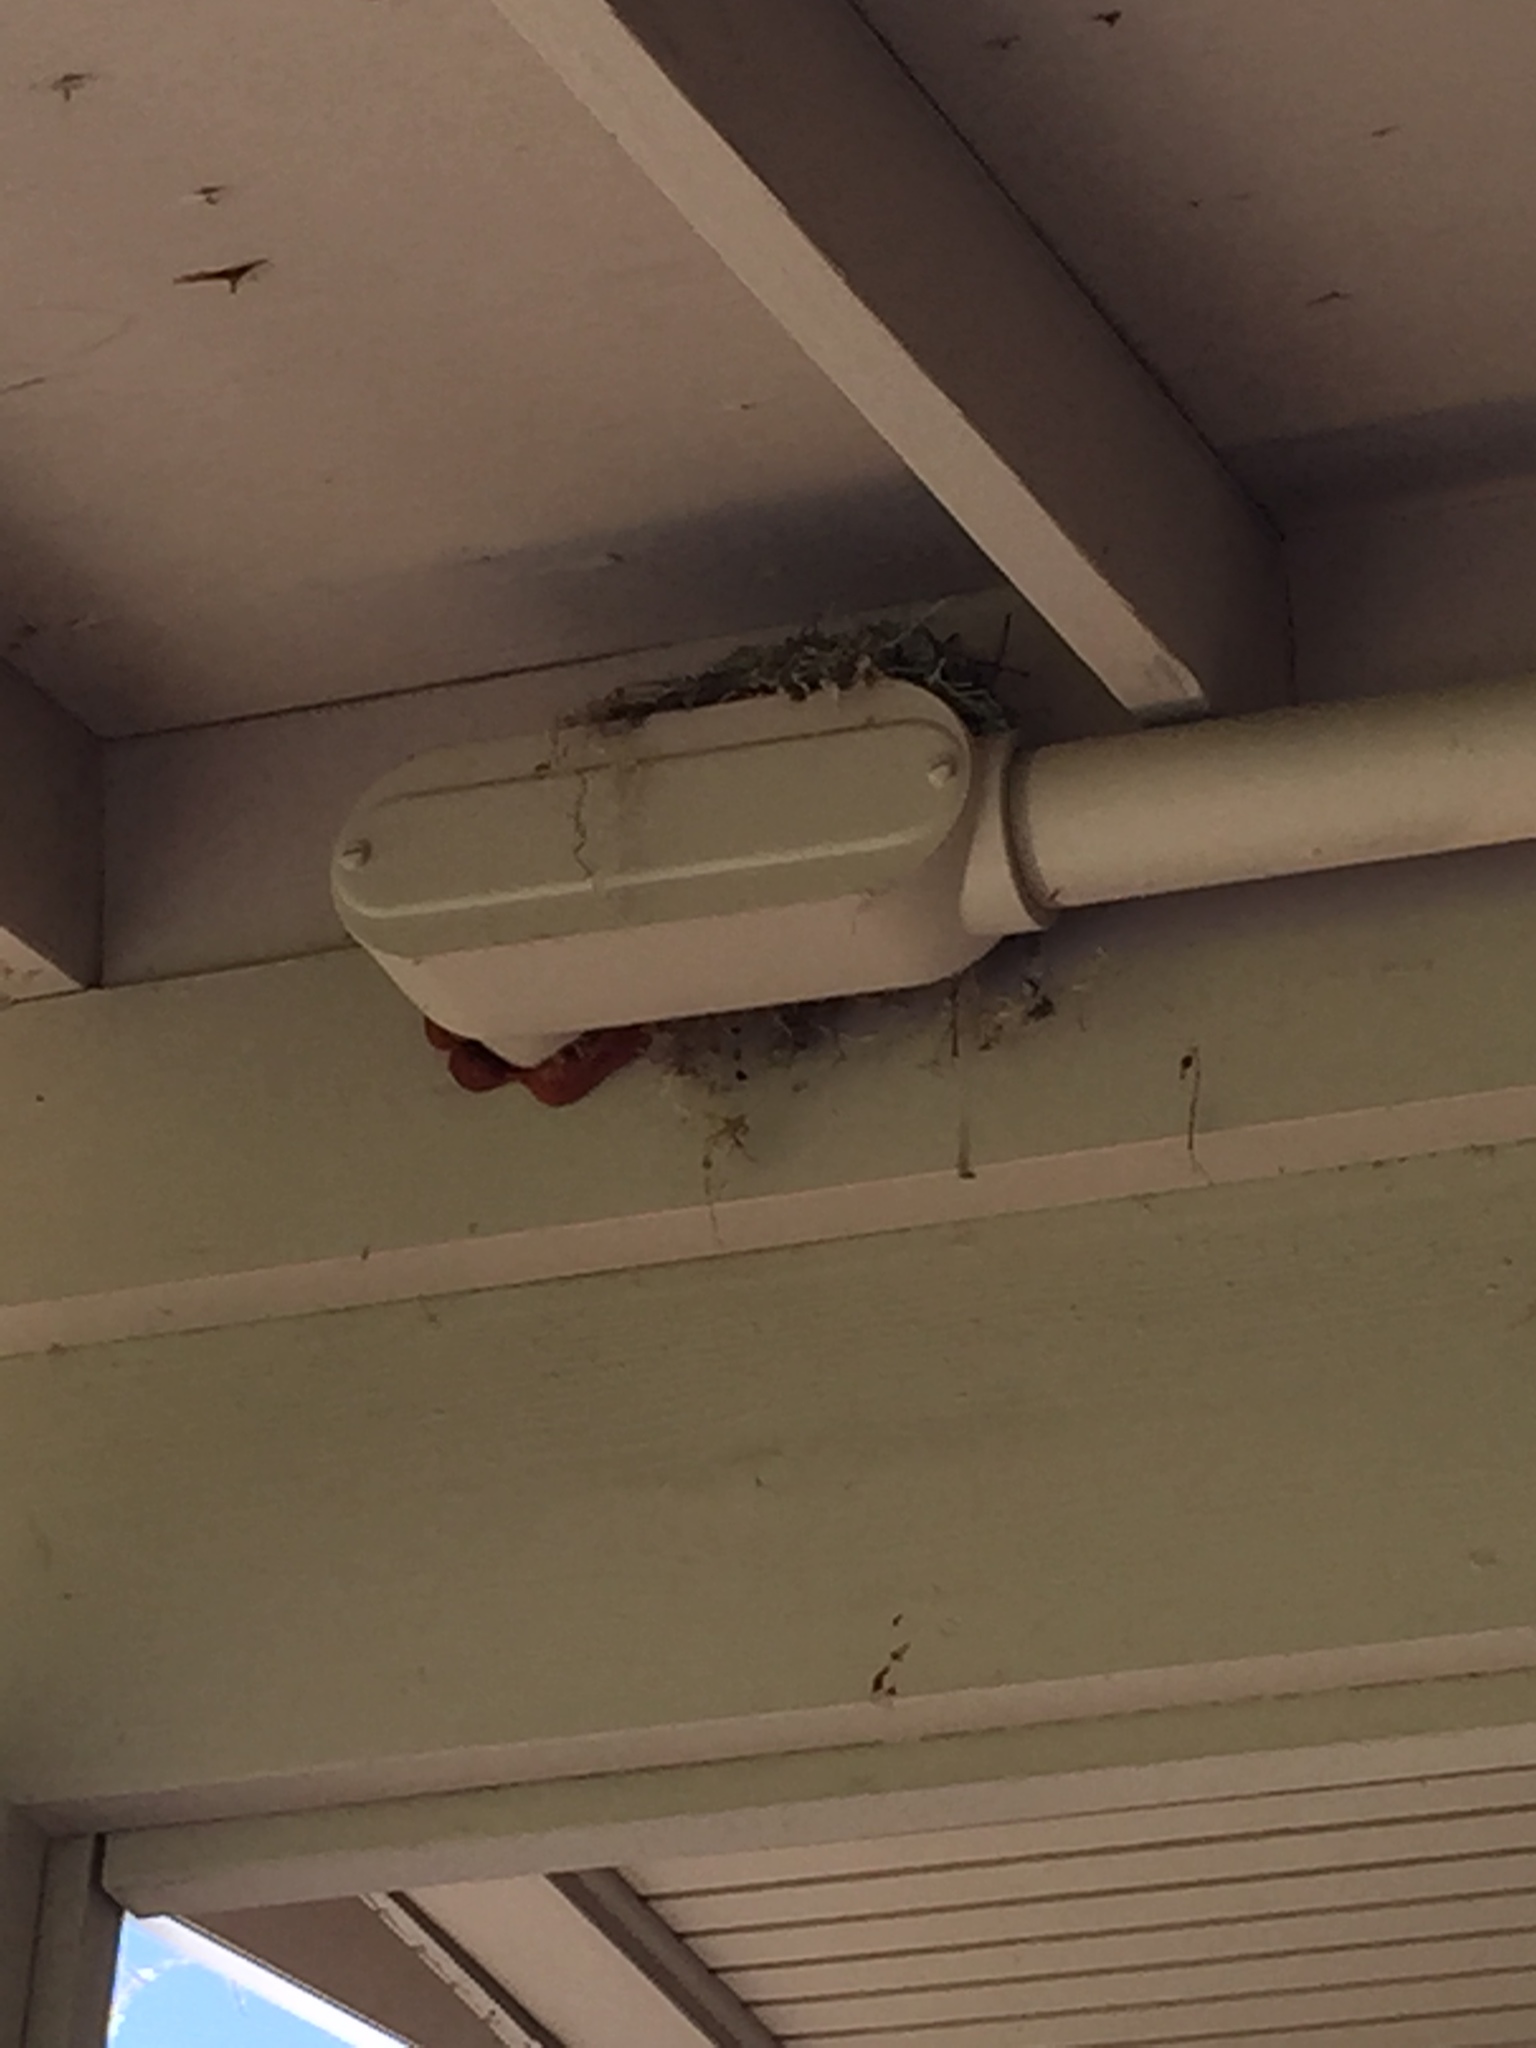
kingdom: Animalia
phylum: Chordata
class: Aves
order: Passeriformes
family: Fringillidae
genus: Haemorhous
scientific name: Haemorhous mexicanus
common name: House finch
